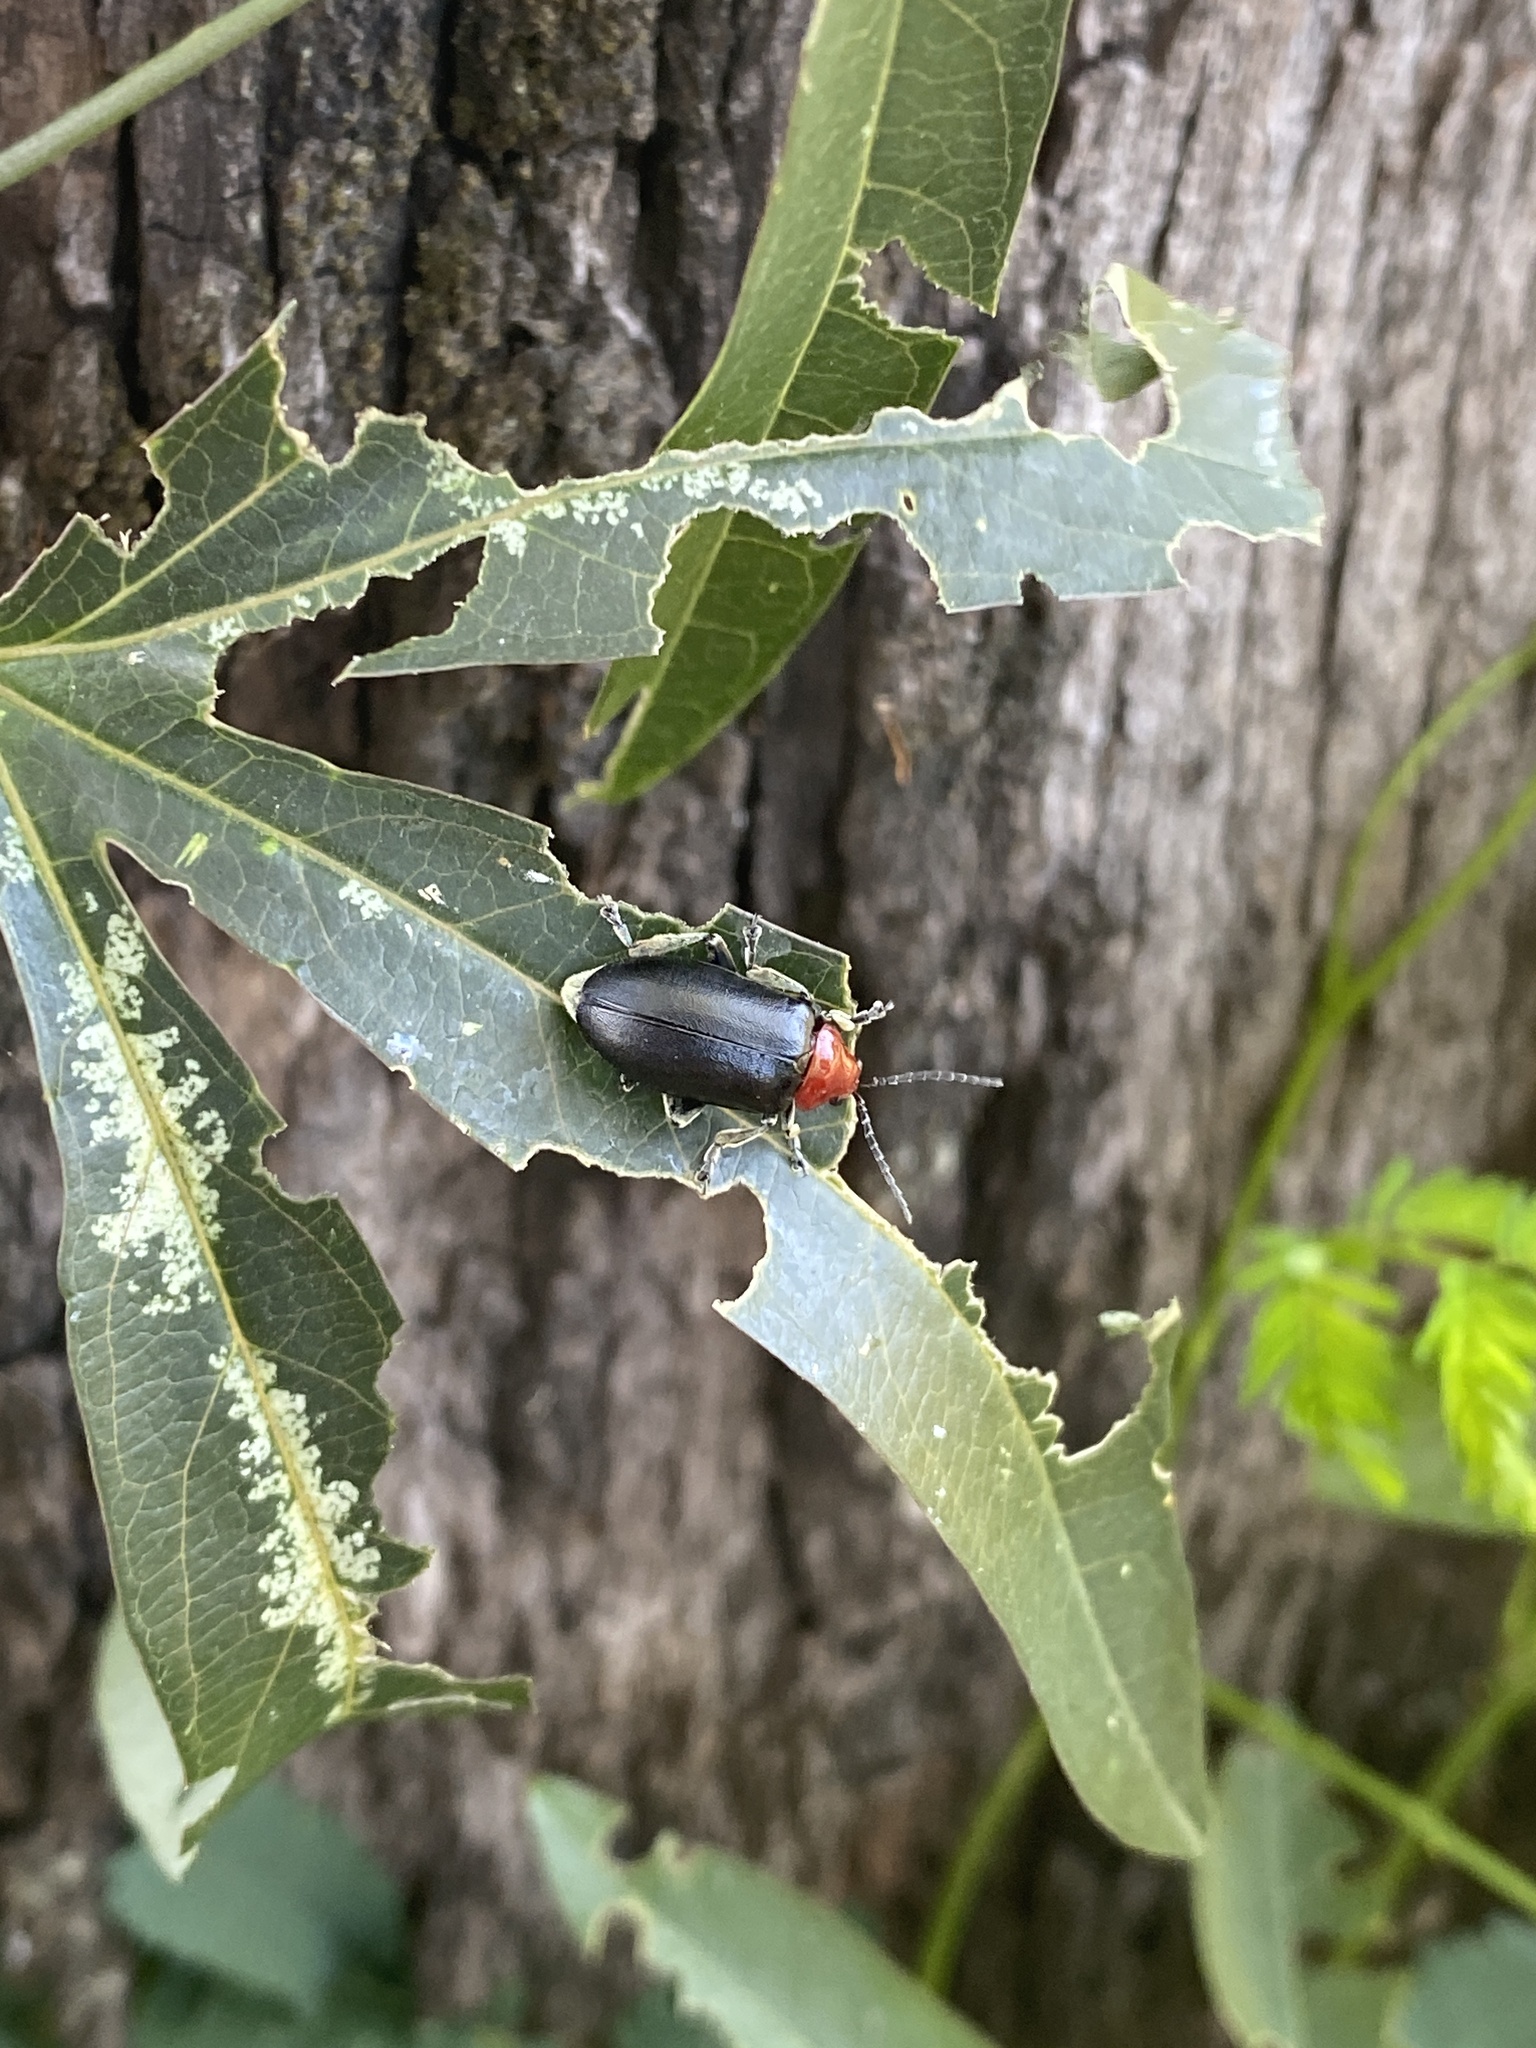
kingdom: Animalia
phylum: Arthropoda
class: Insecta
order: Coleoptera
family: Chrysomelidae
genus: Cacoscelis
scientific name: Cacoscelis
